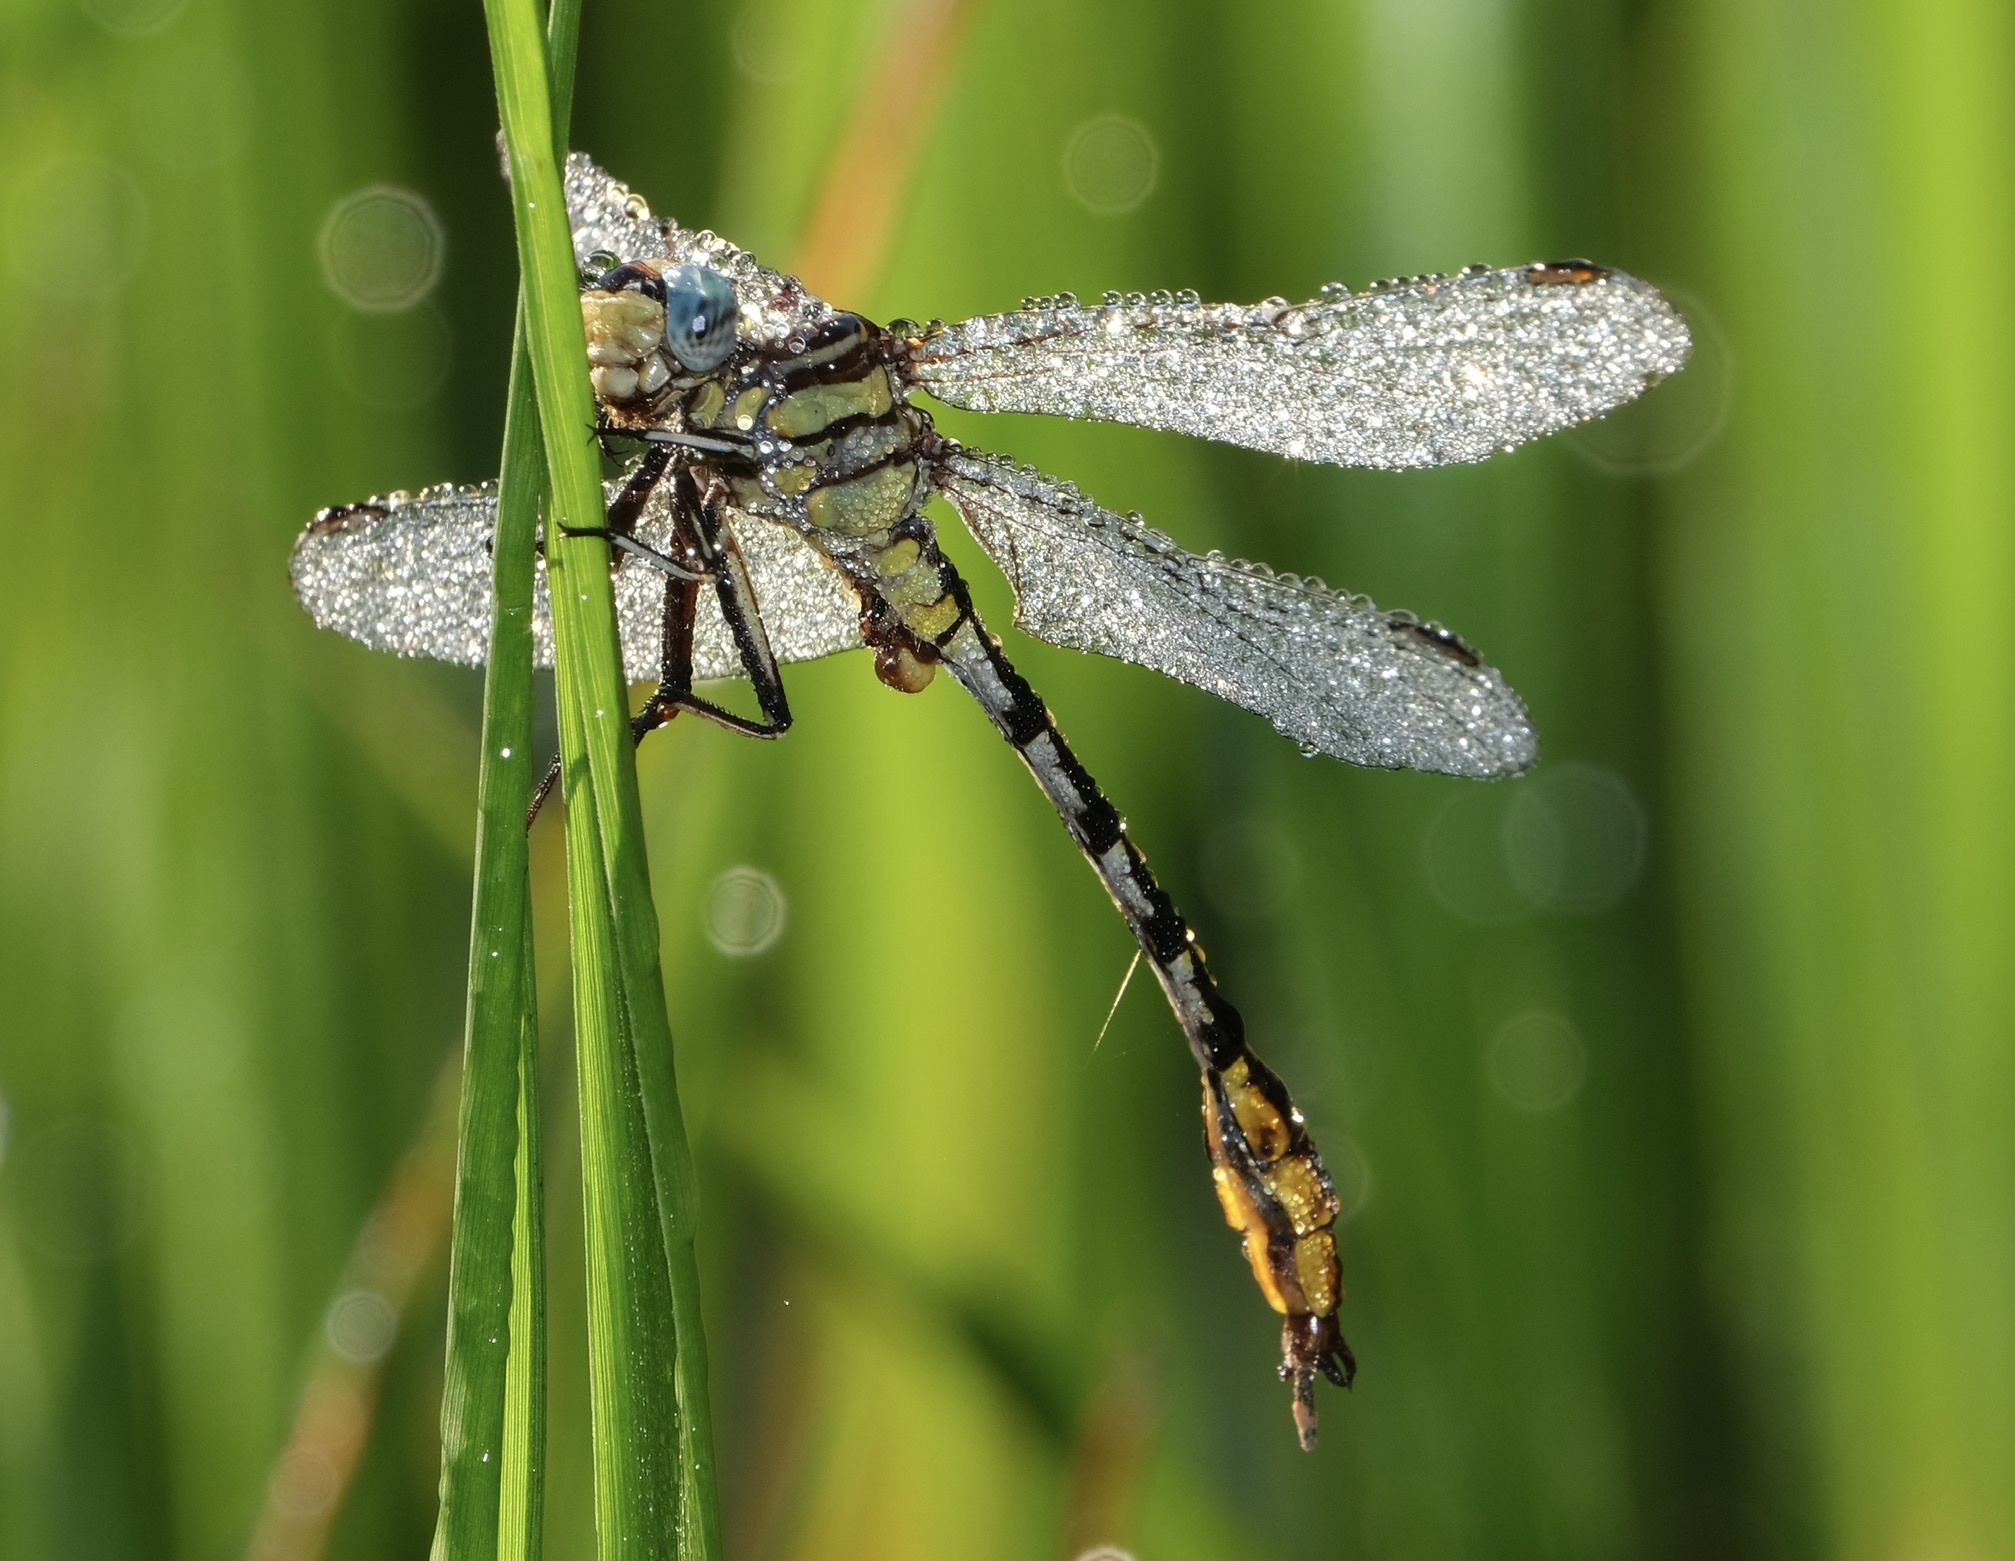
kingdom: Animalia
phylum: Arthropoda
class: Insecta
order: Odonata
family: Gomphidae
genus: Phanogomphus
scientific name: Phanogomphus militaris
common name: Sulphur-tipped clubtail
